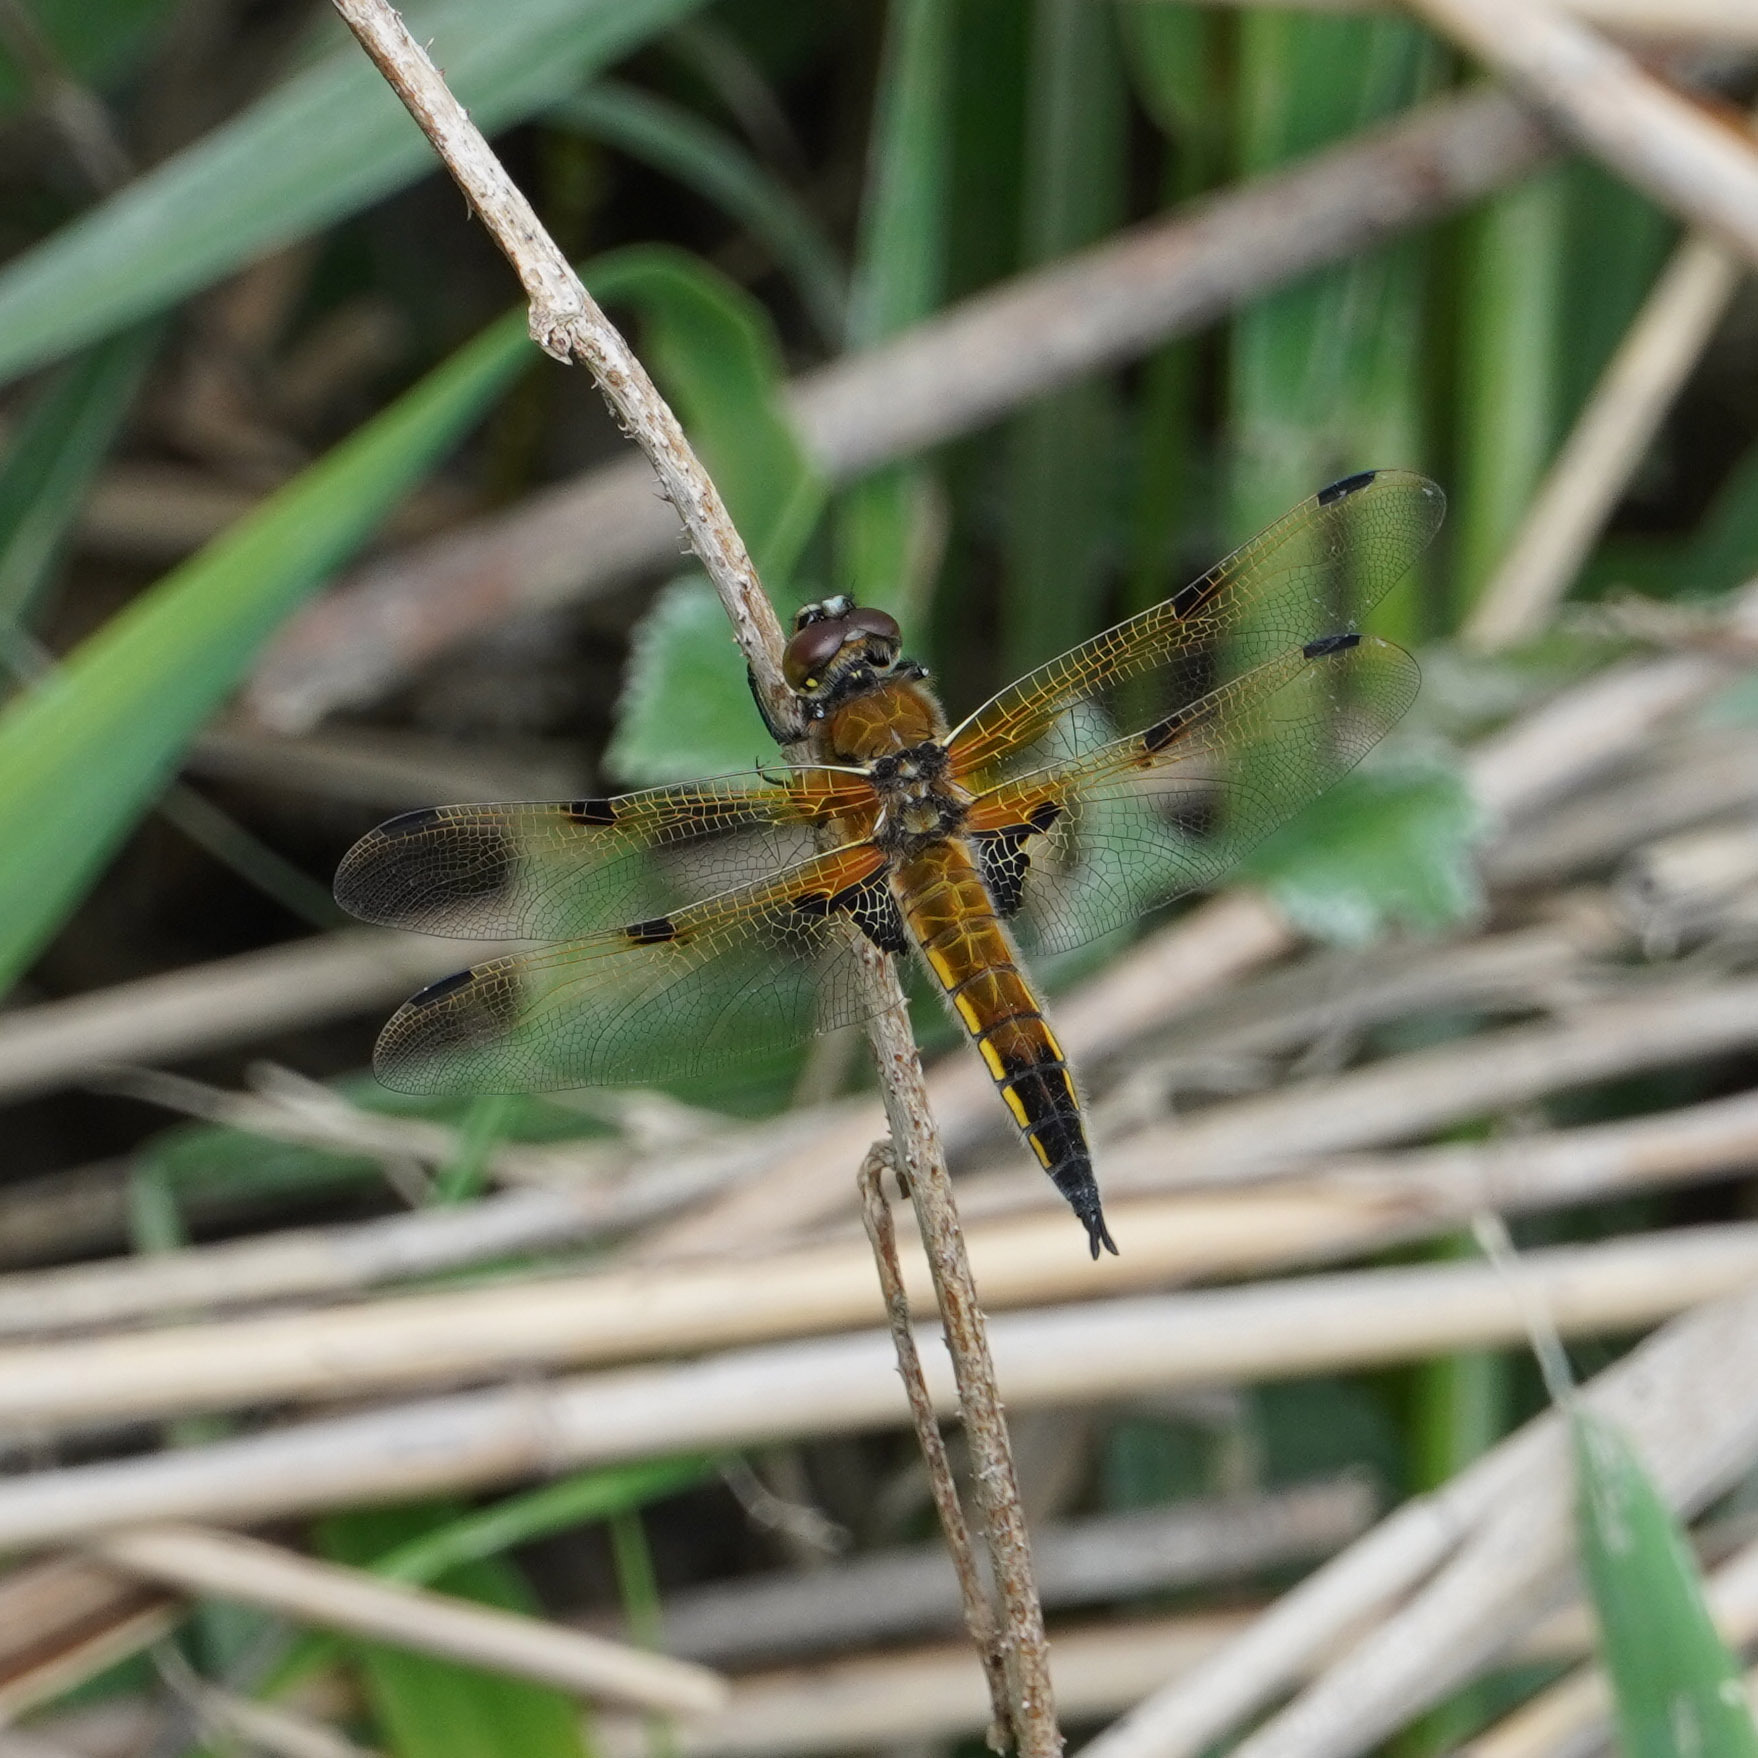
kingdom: Animalia
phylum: Arthropoda
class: Insecta
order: Odonata
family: Libellulidae
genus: Libellula
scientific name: Libellula quadrimaculata
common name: Four-spotted chaser
